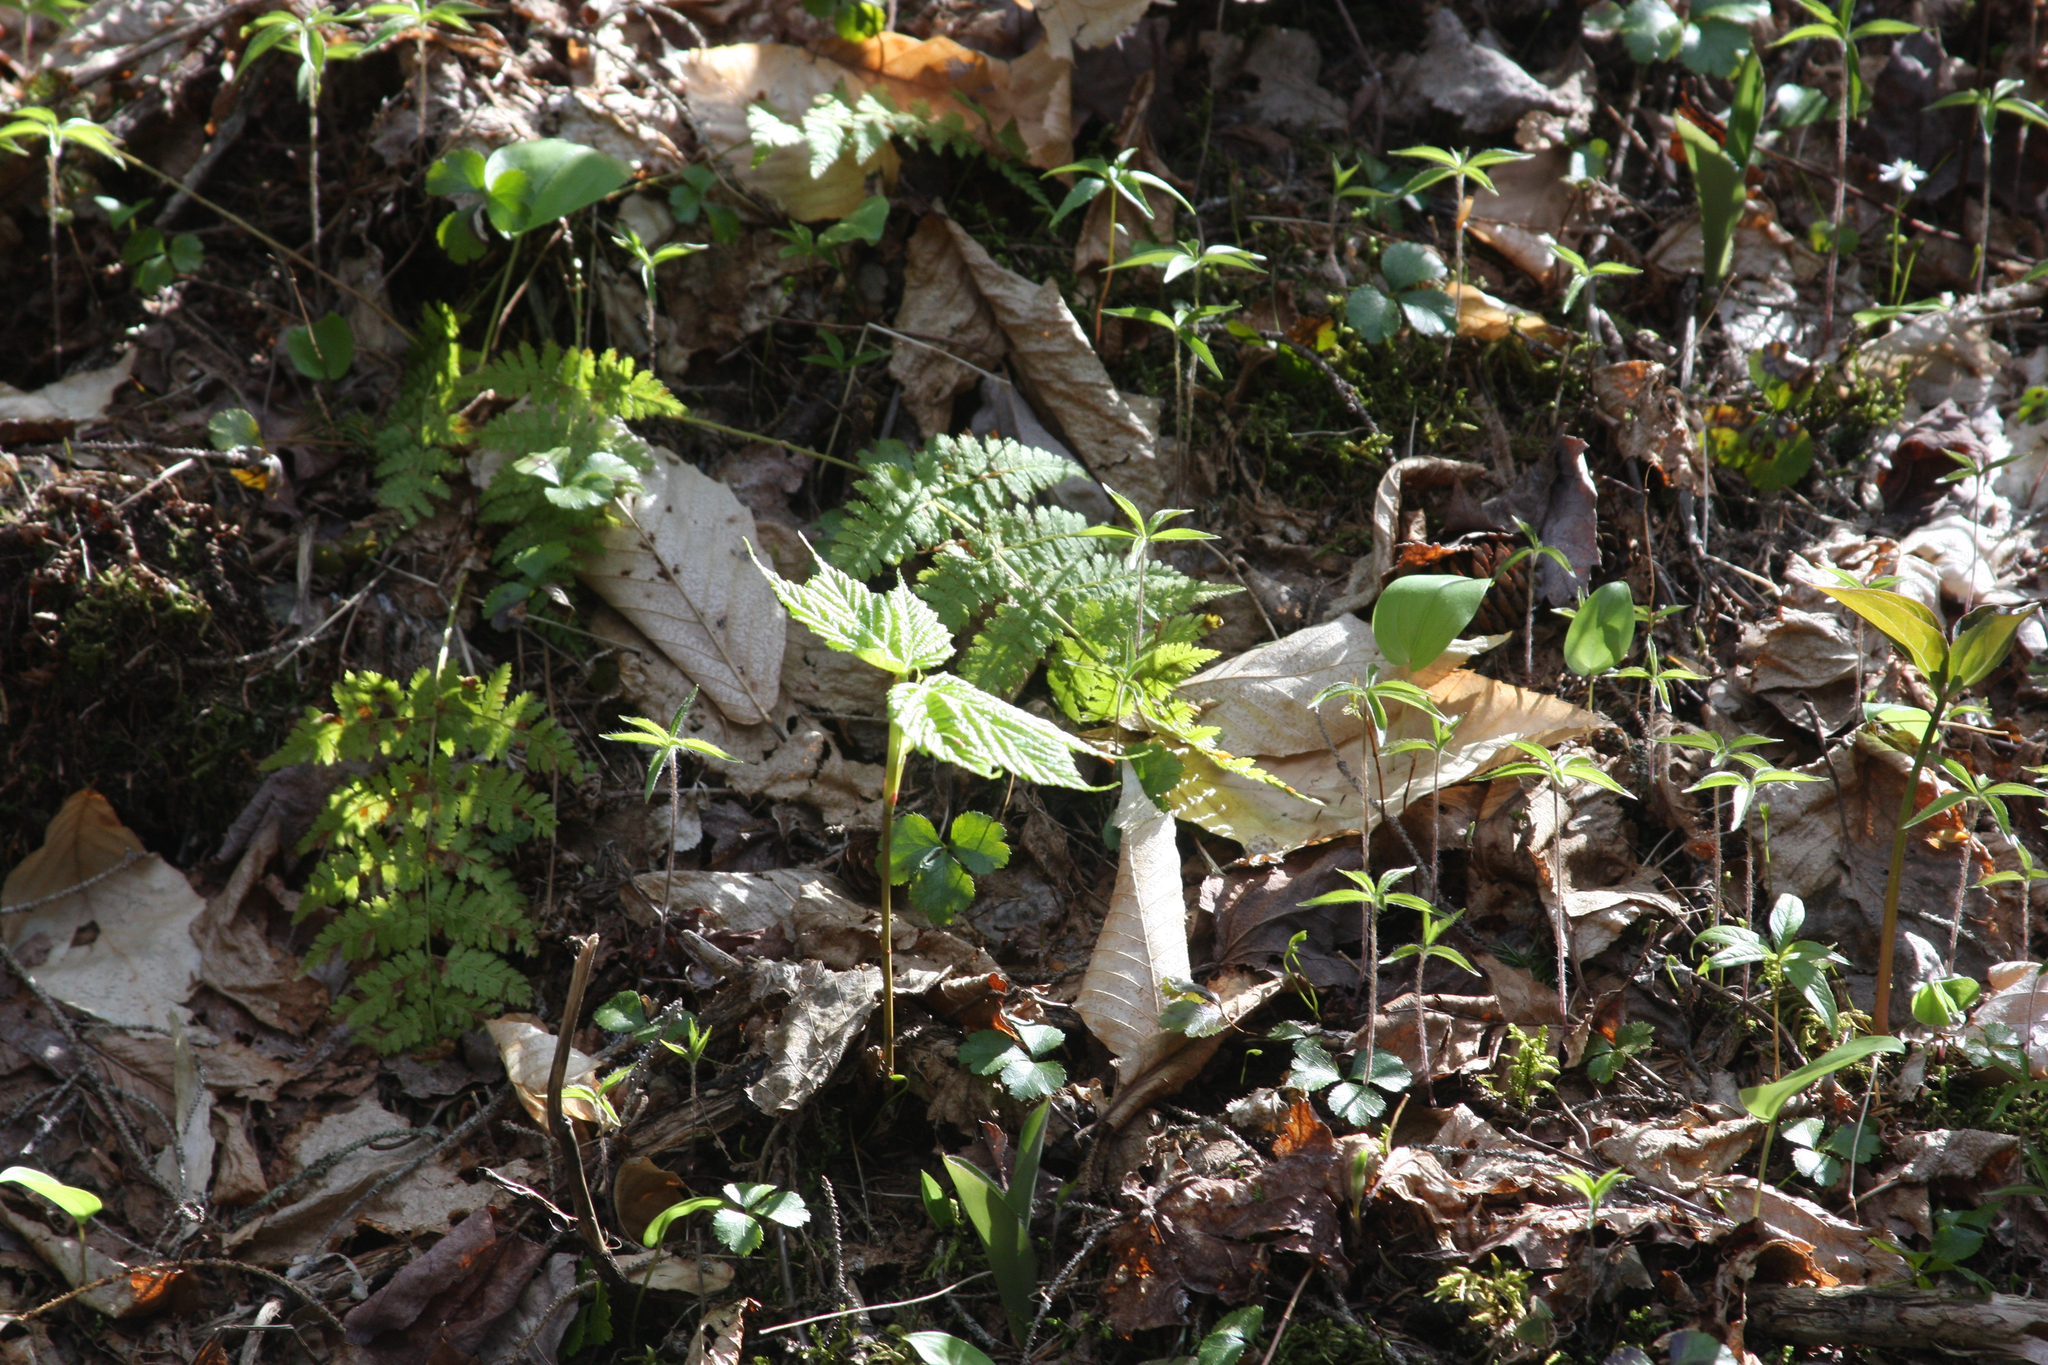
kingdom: Plantae
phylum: Tracheophyta
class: Magnoliopsida
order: Ranunculales
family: Ranunculaceae
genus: Coptis
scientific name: Coptis trifolia
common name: Canker-root
